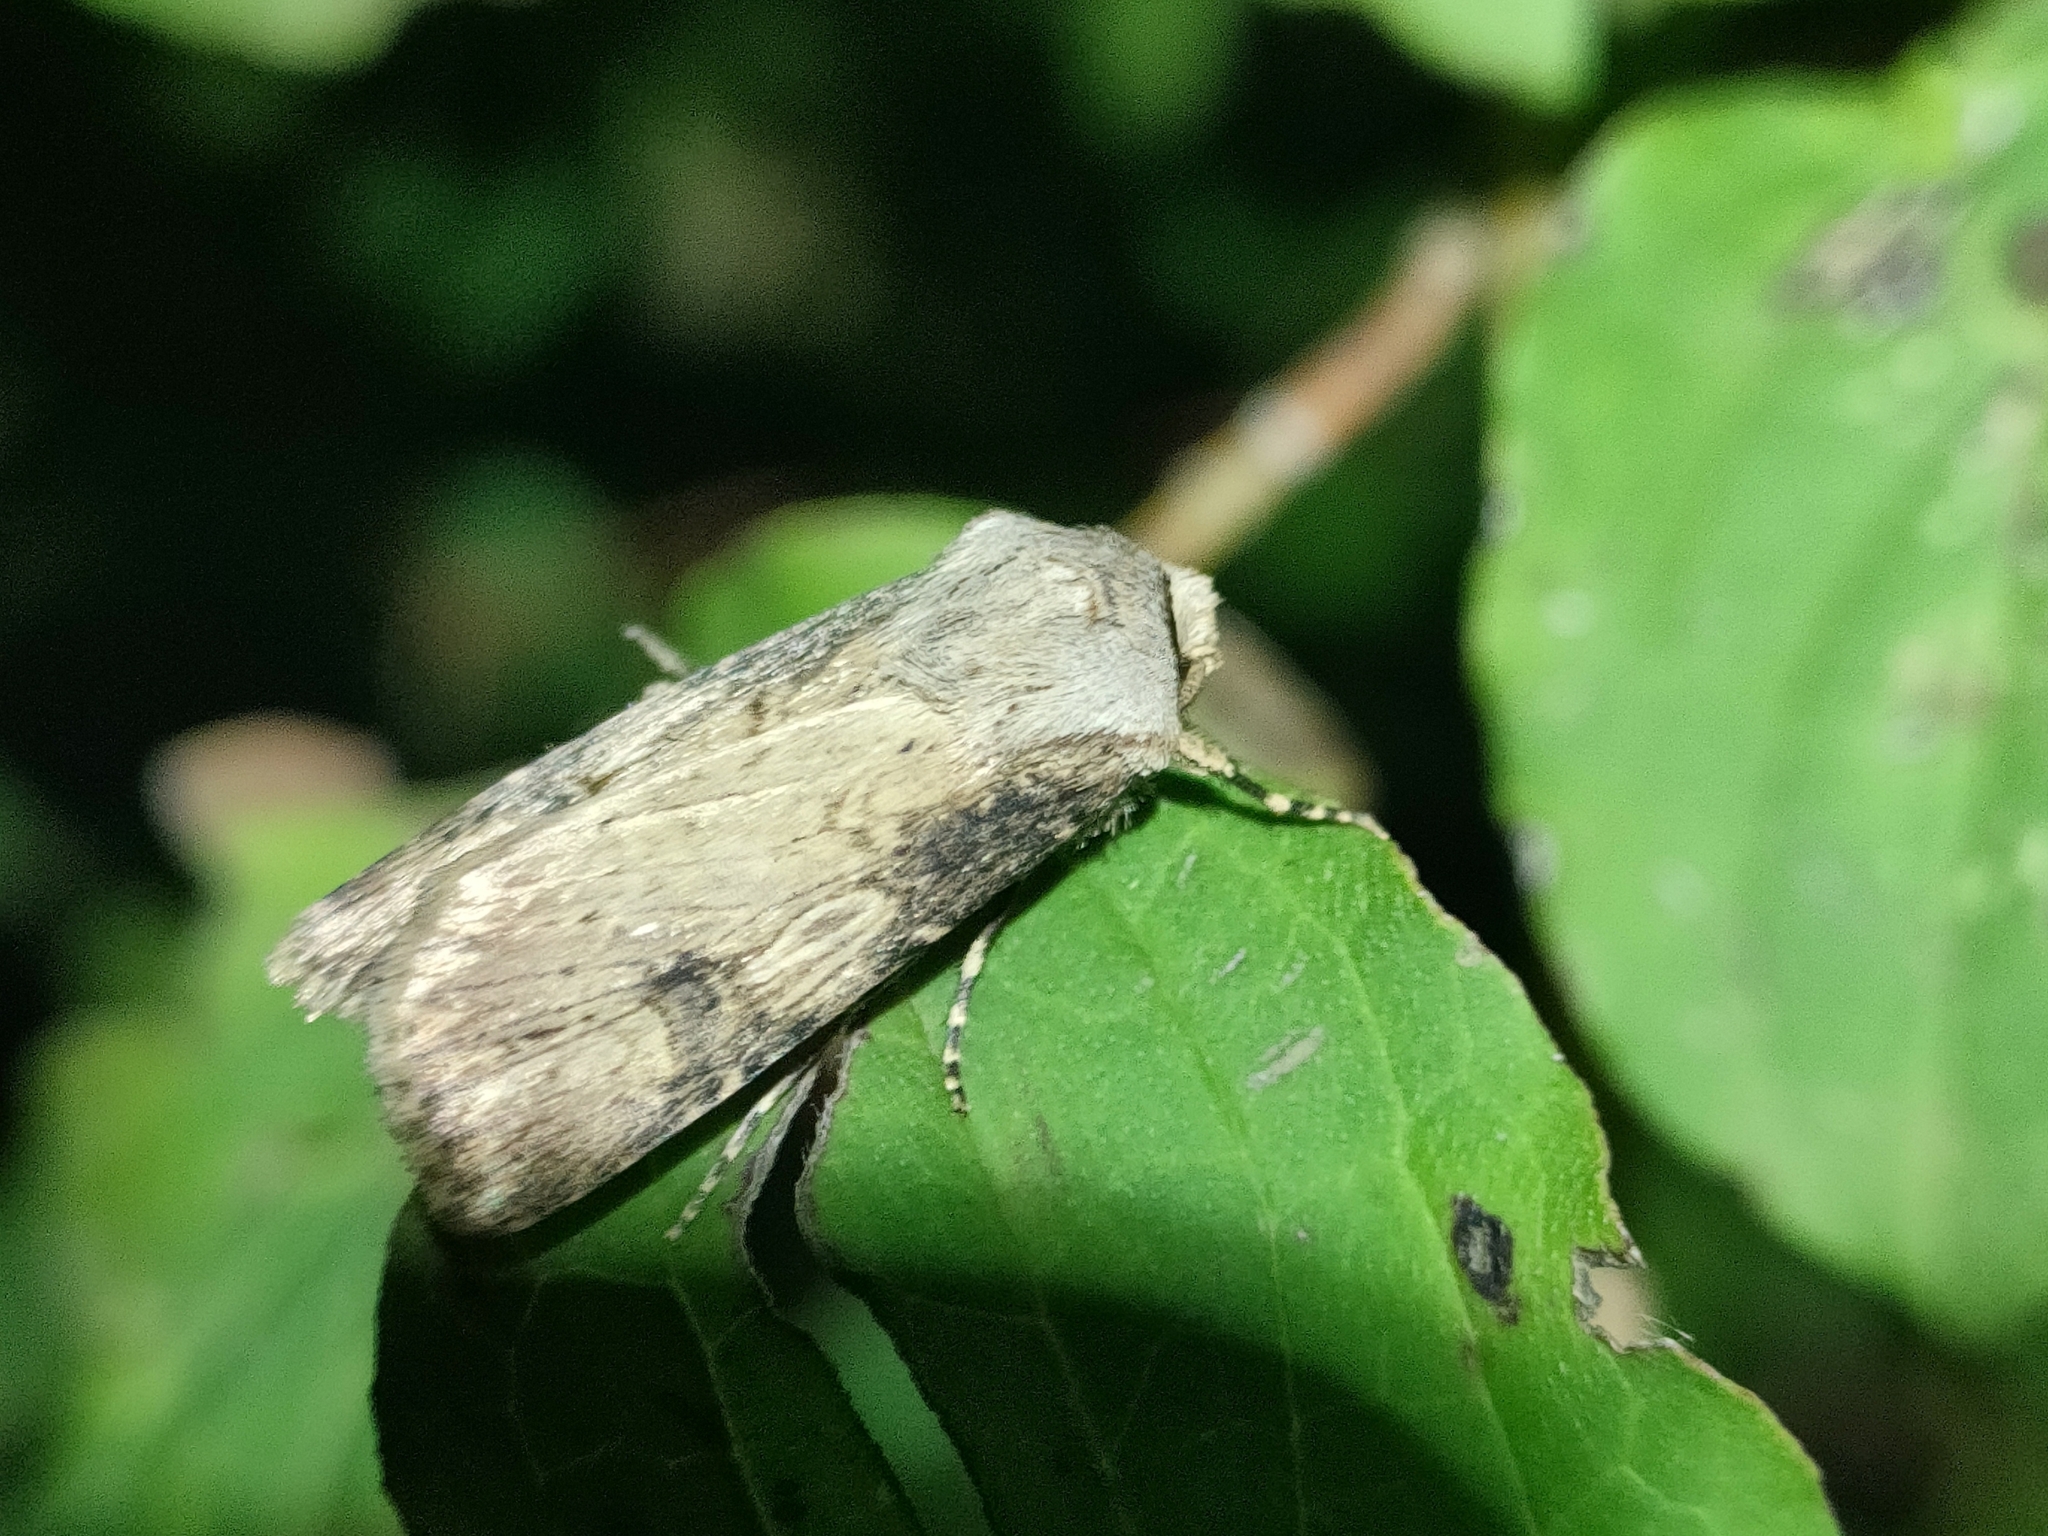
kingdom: Animalia
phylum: Arthropoda
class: Insecta
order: Lepidoptera
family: Noctuidae
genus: Agrotis
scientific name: Agrotis puta
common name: Shuttle-shaped dart
